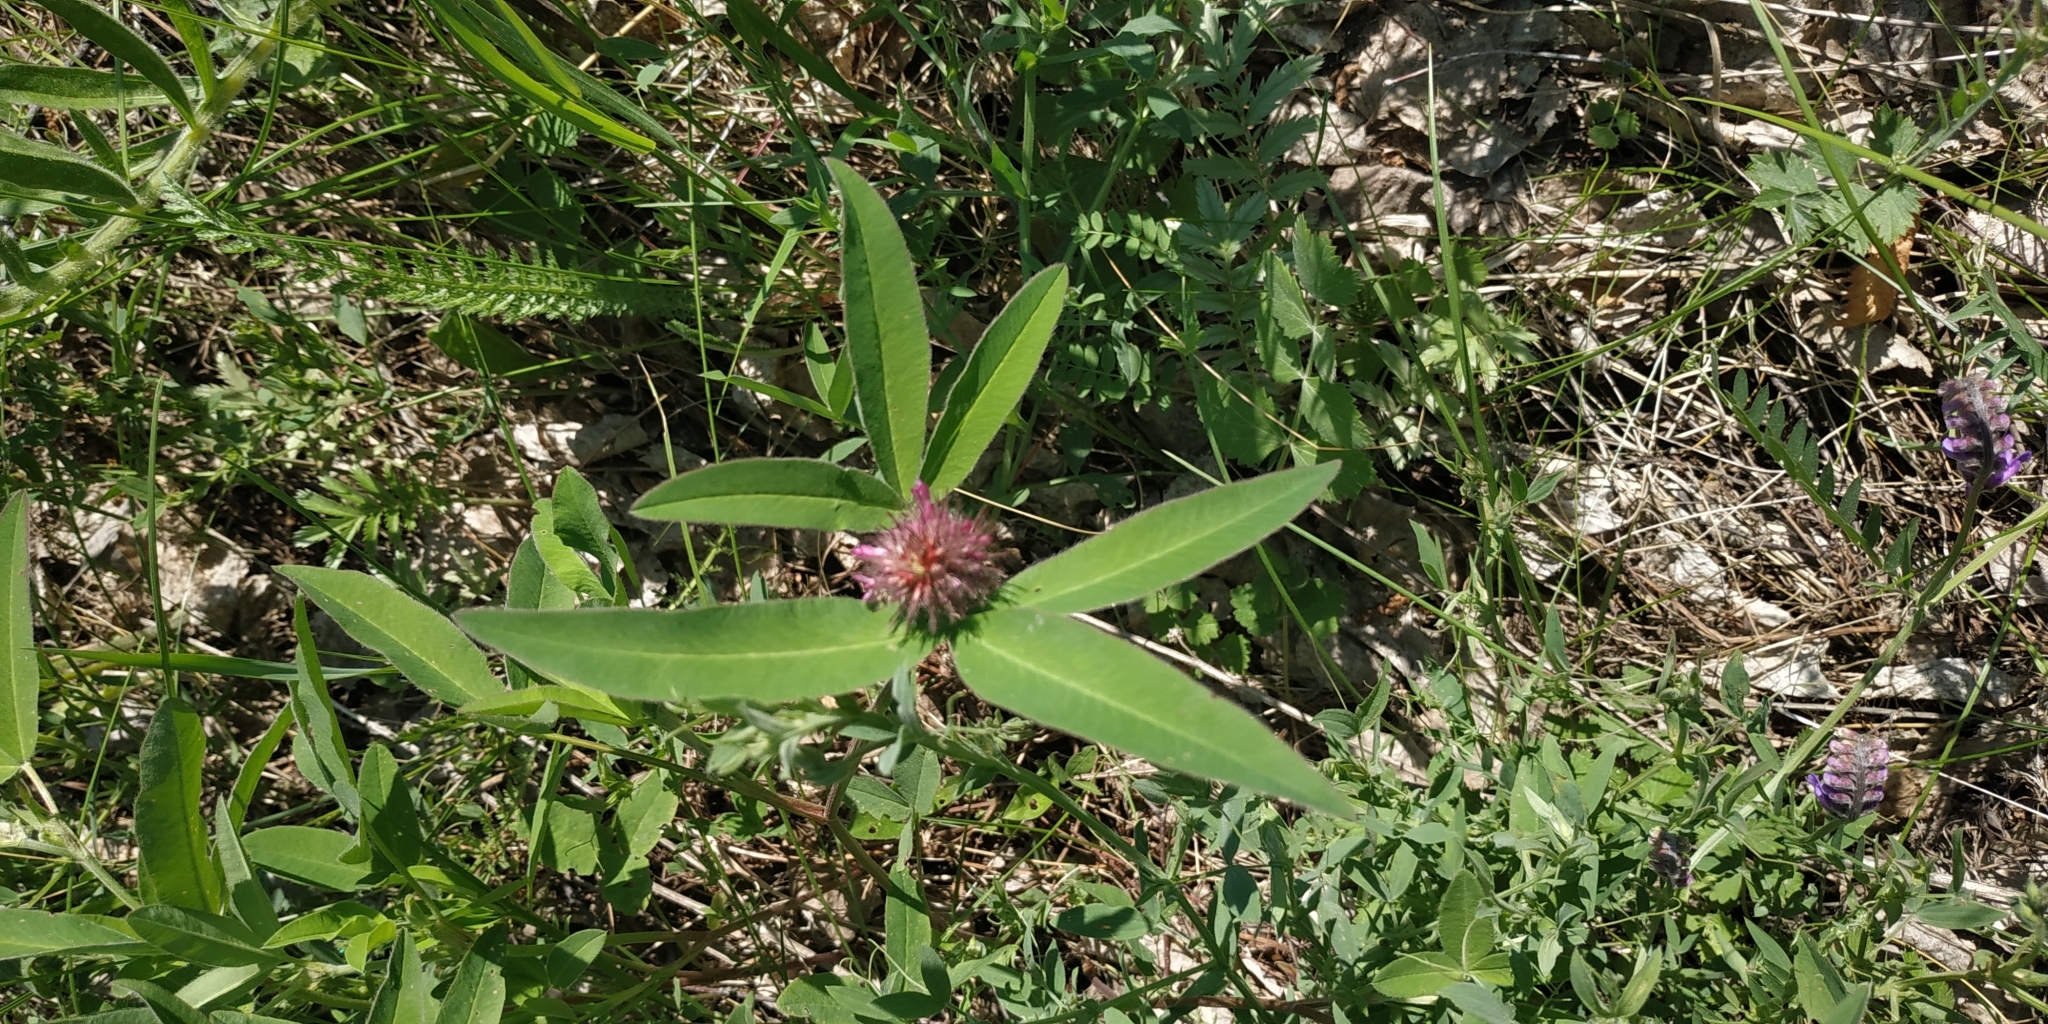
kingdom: Plantae
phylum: Tracheophyta
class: Magnoliopsida
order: Fabales
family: Fabaceae
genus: Trifolium
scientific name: Trifolium medium
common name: Zigzag clover
